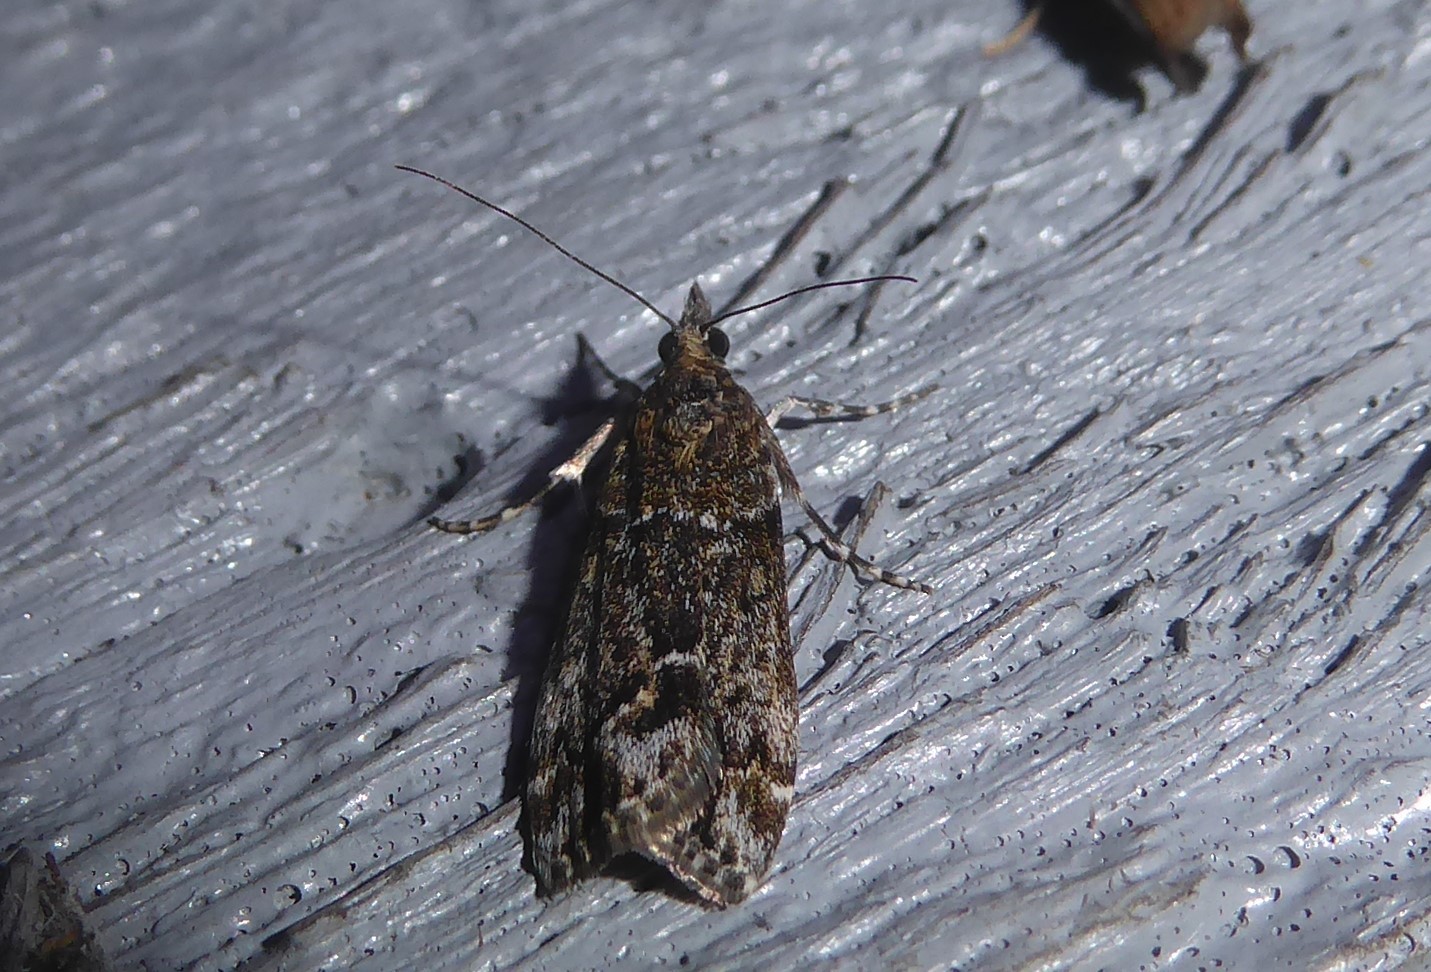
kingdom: Animalia
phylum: Arthropoda
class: Insecta
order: Lepidoptera
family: Crambidae
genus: Eudonia
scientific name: Eudonia submarginalis
